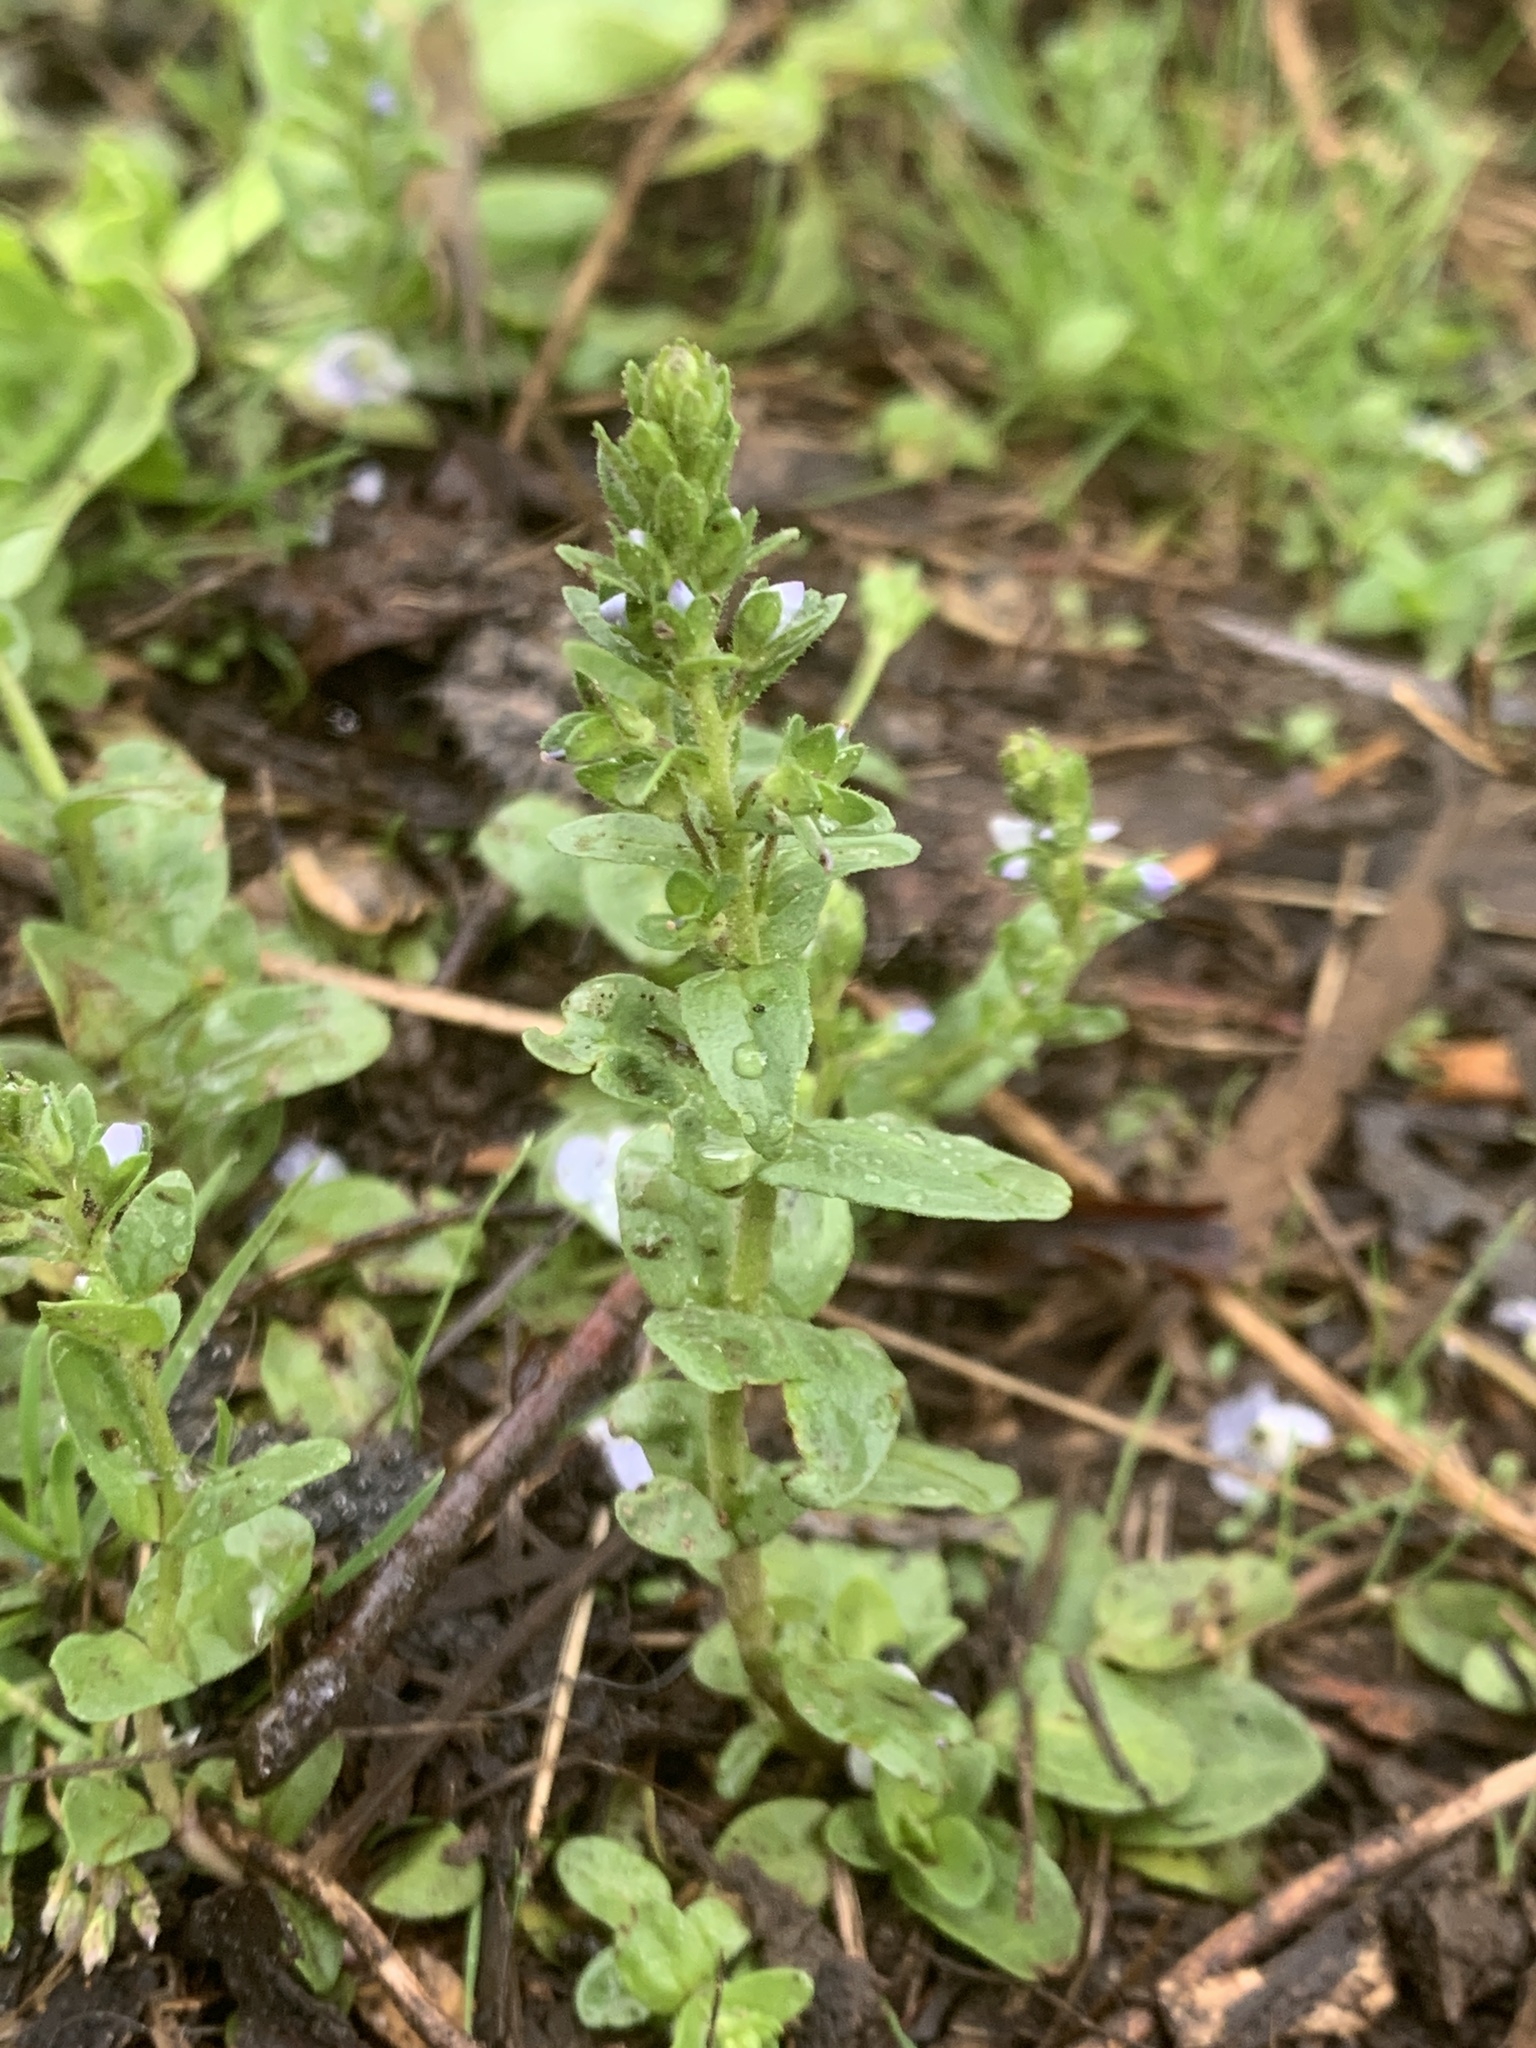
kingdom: Plantae
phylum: Tracheophyta
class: Magnoliopsida
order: Lamiales
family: Plantaginaceae
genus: Veronica
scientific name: Veronica serpyllifolia
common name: Thyme-leaved speedwell
